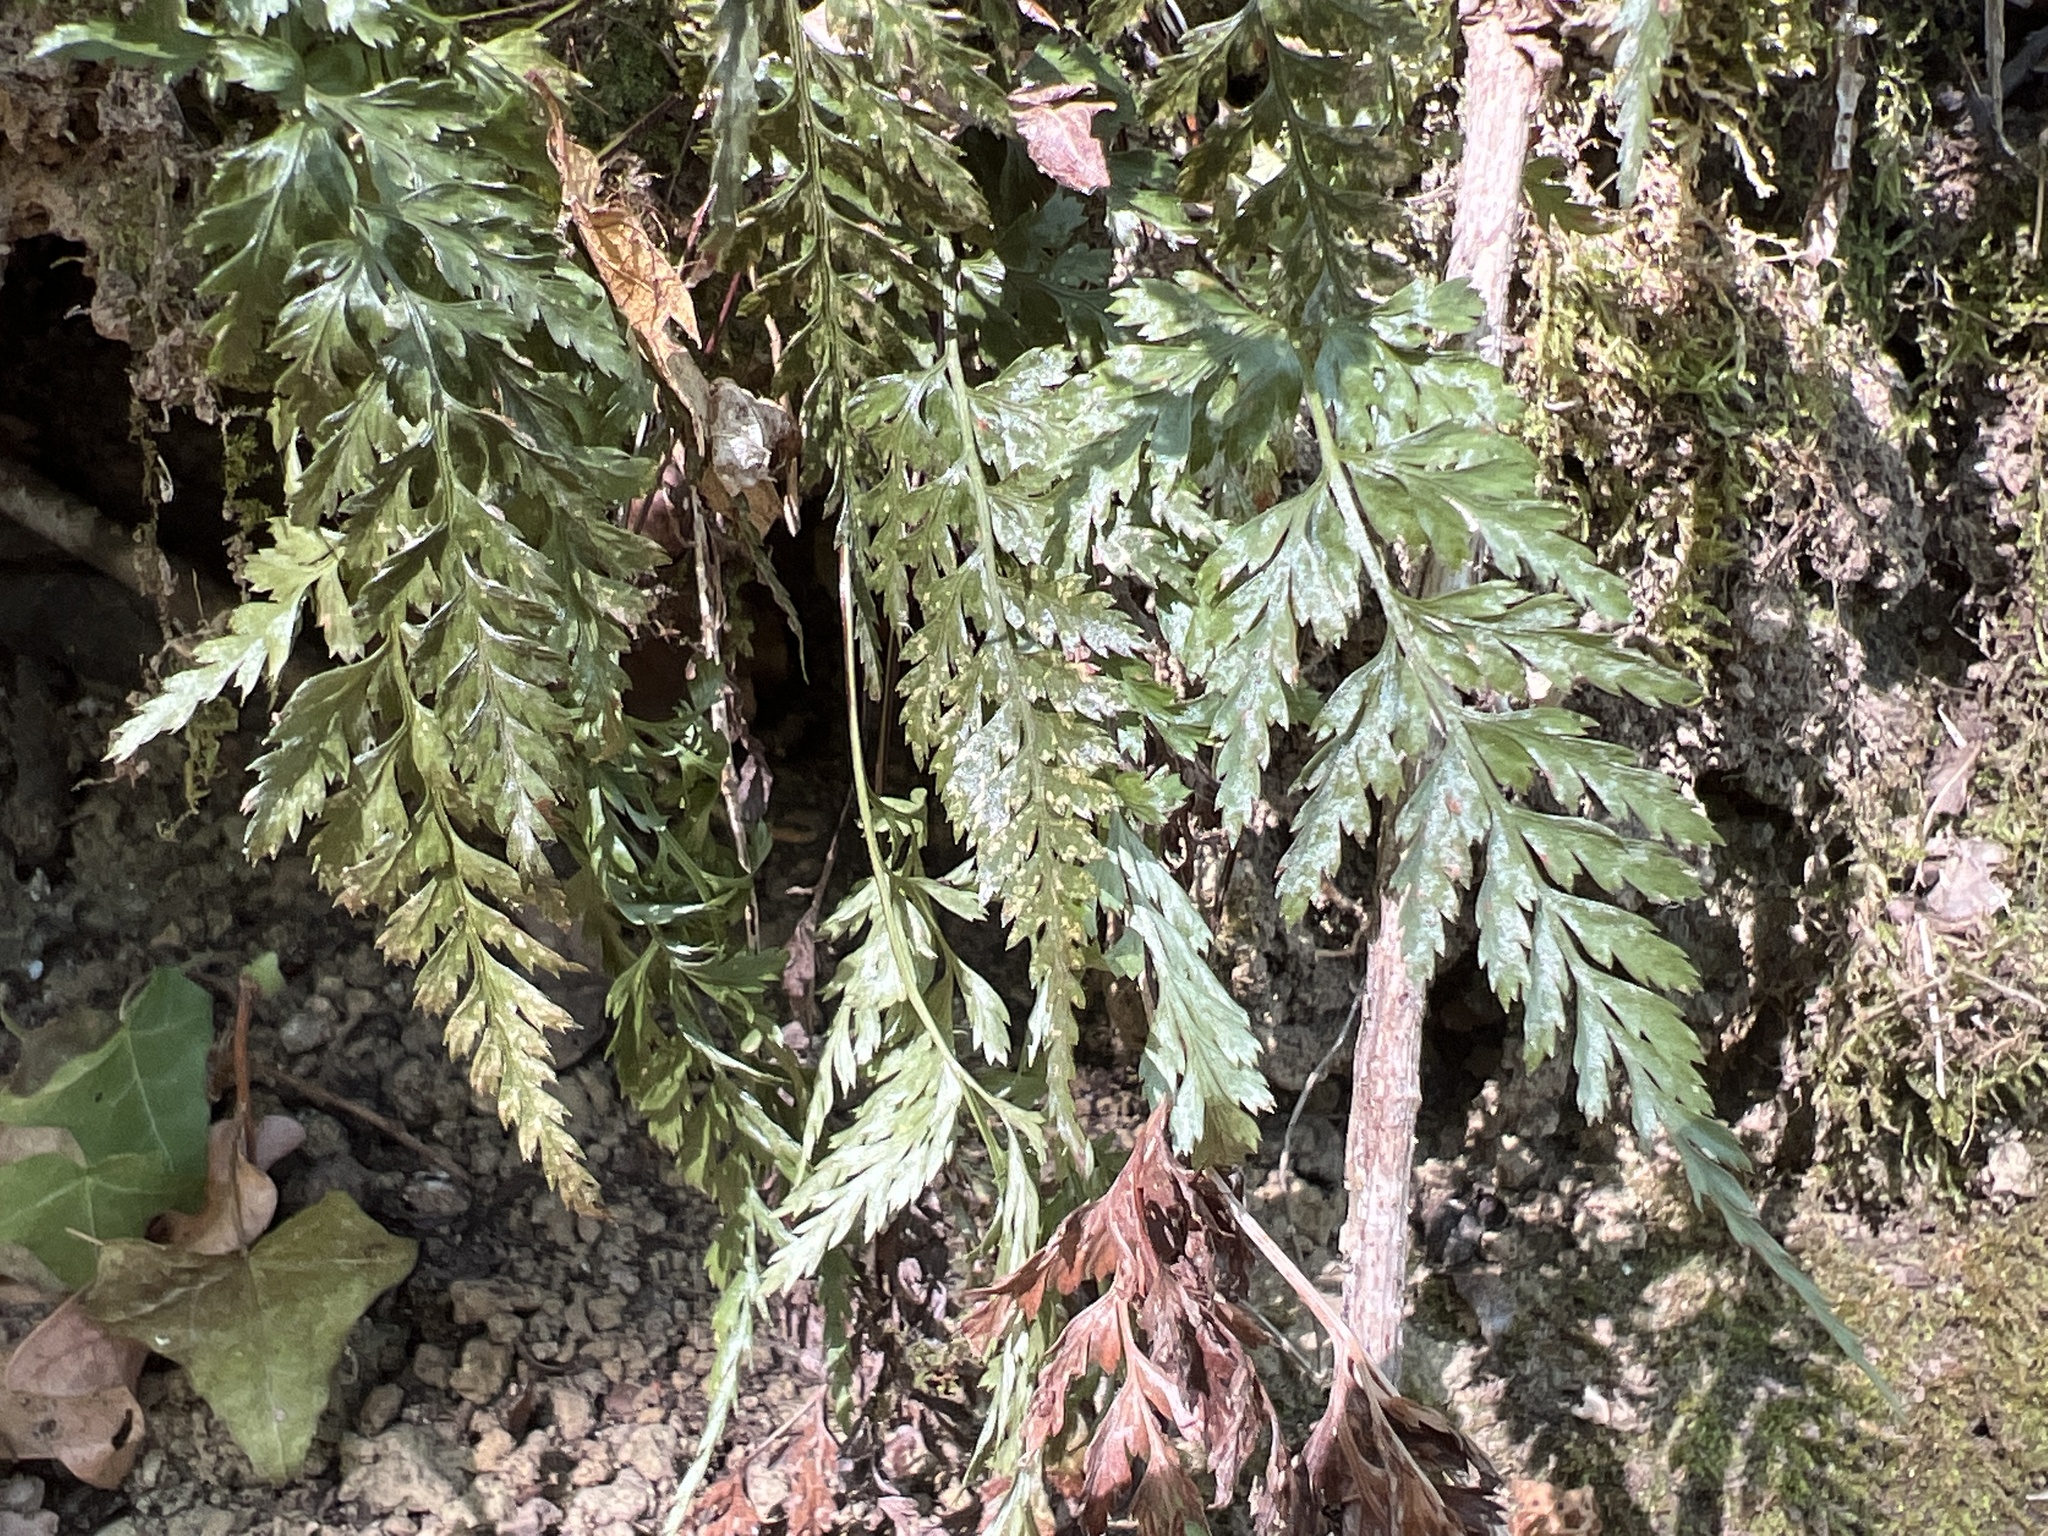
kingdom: Plantae
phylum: Tracheophyta
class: Polypodiopsida
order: Polypodiales
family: Aspleniaceae
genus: Asplenium
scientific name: Asplenium onopteris
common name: Irish spleenwort
